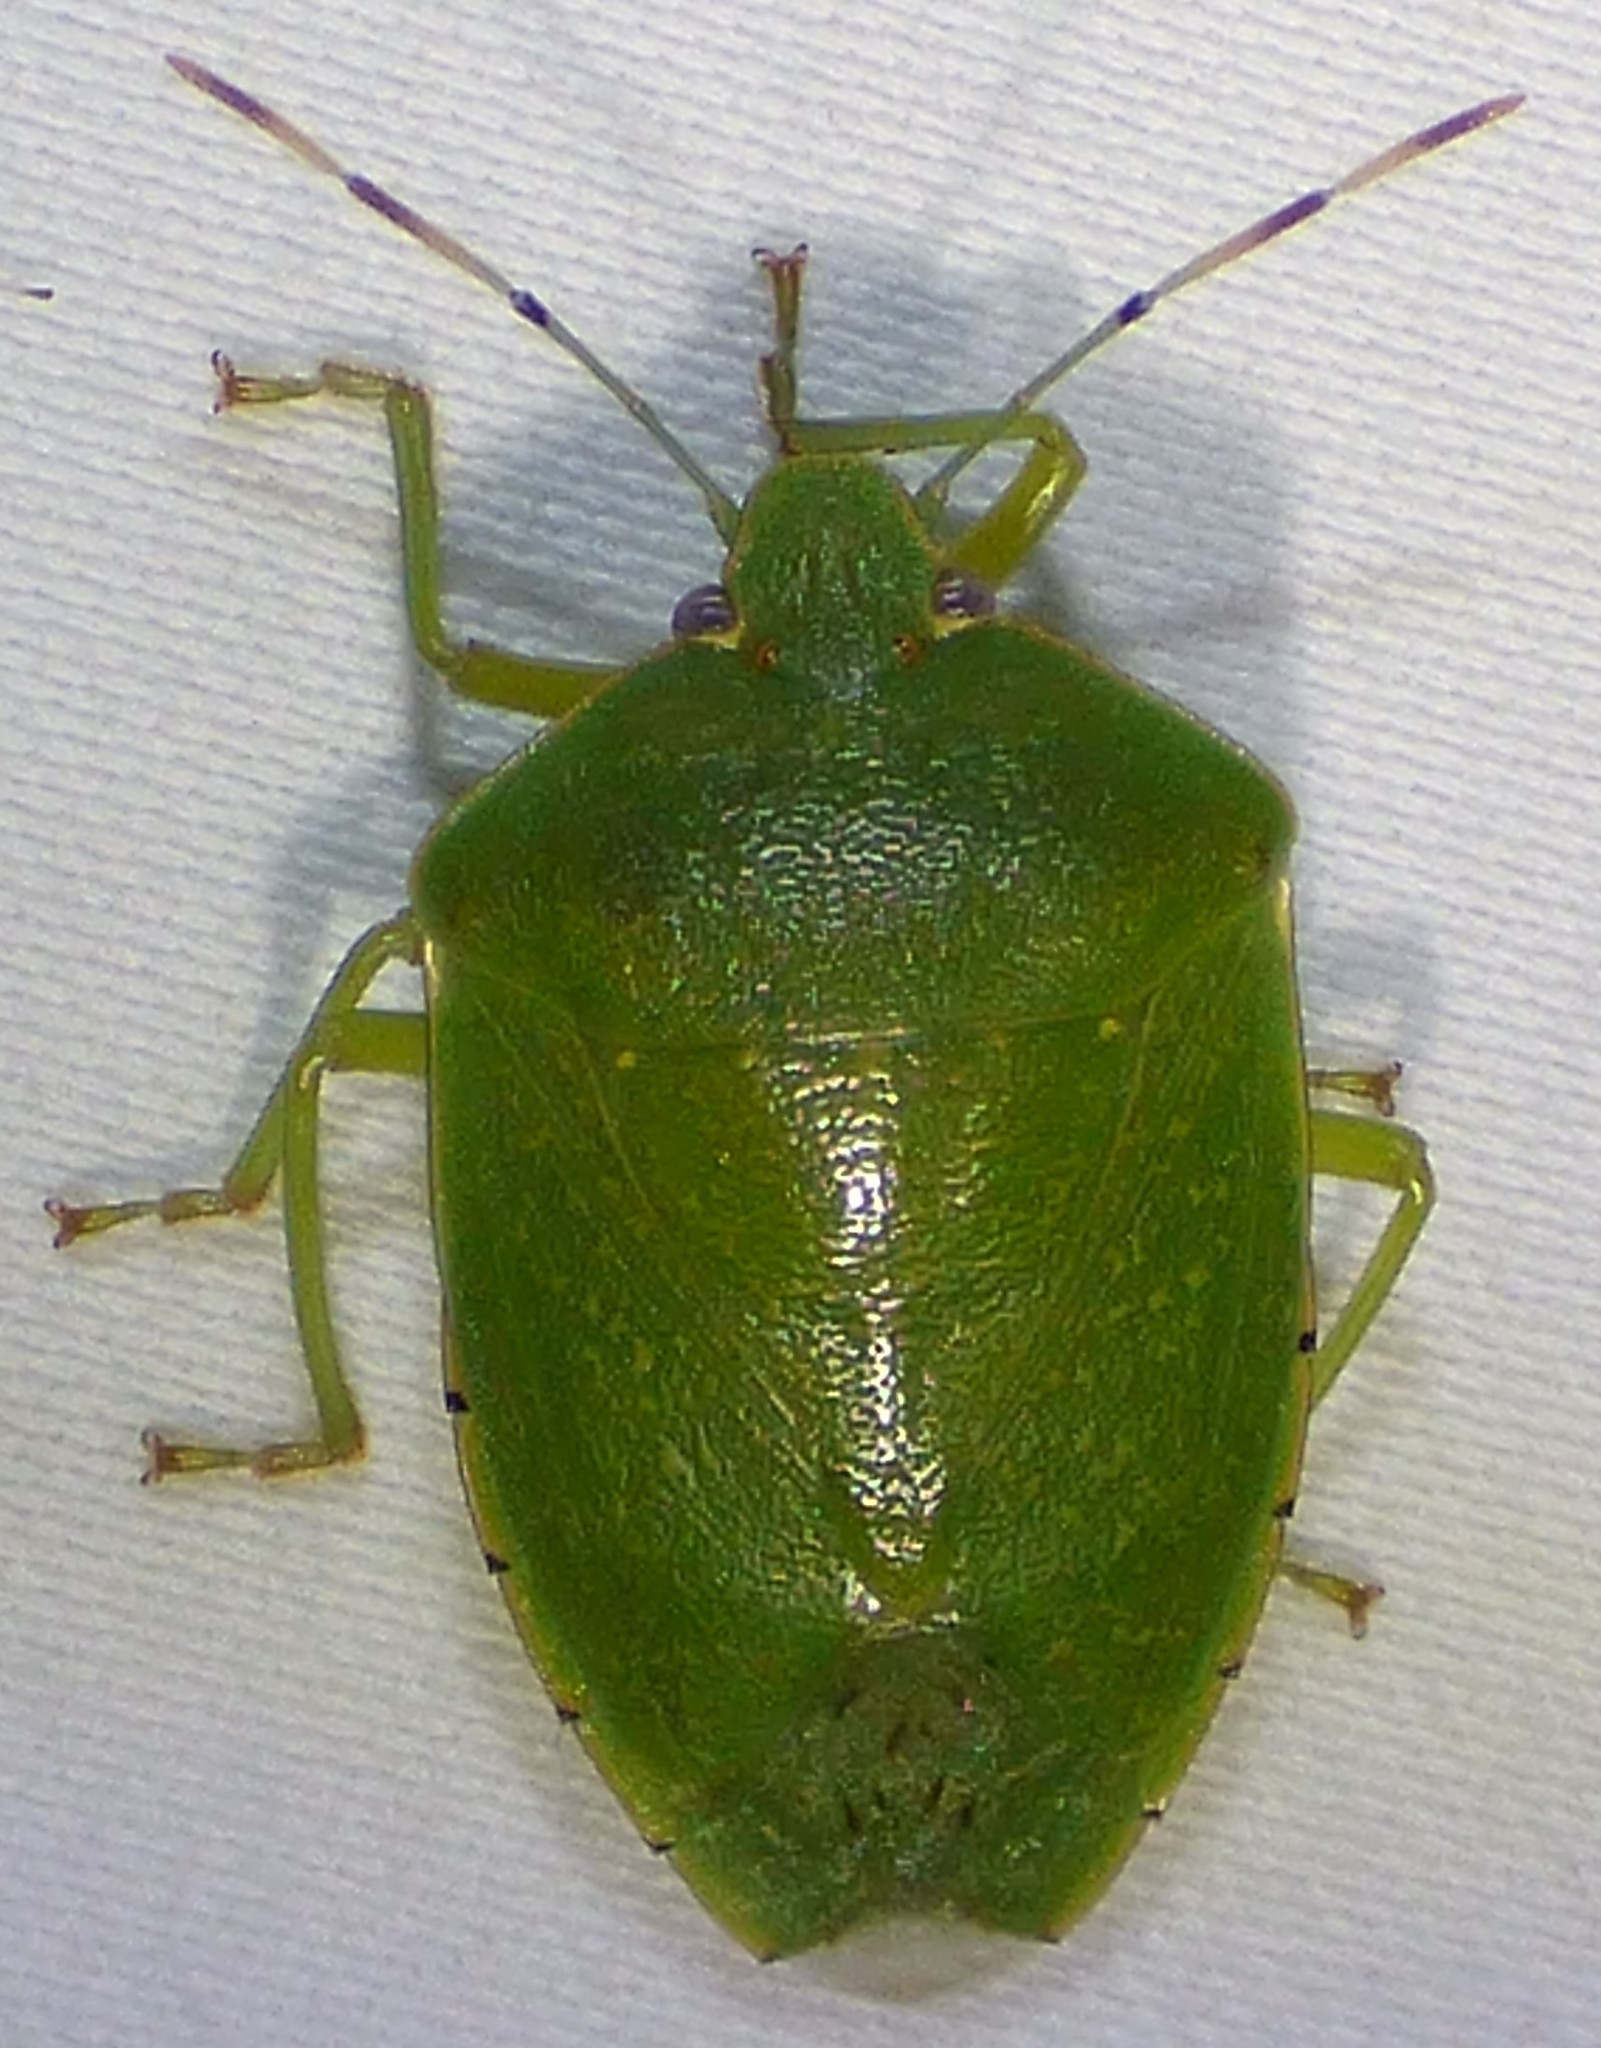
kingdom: Animalia
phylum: Arthropoda
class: Insecta
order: Hemiptera
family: Pentatomidae
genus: Chinavia
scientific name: Chinavia hilaris
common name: Green stink bug
